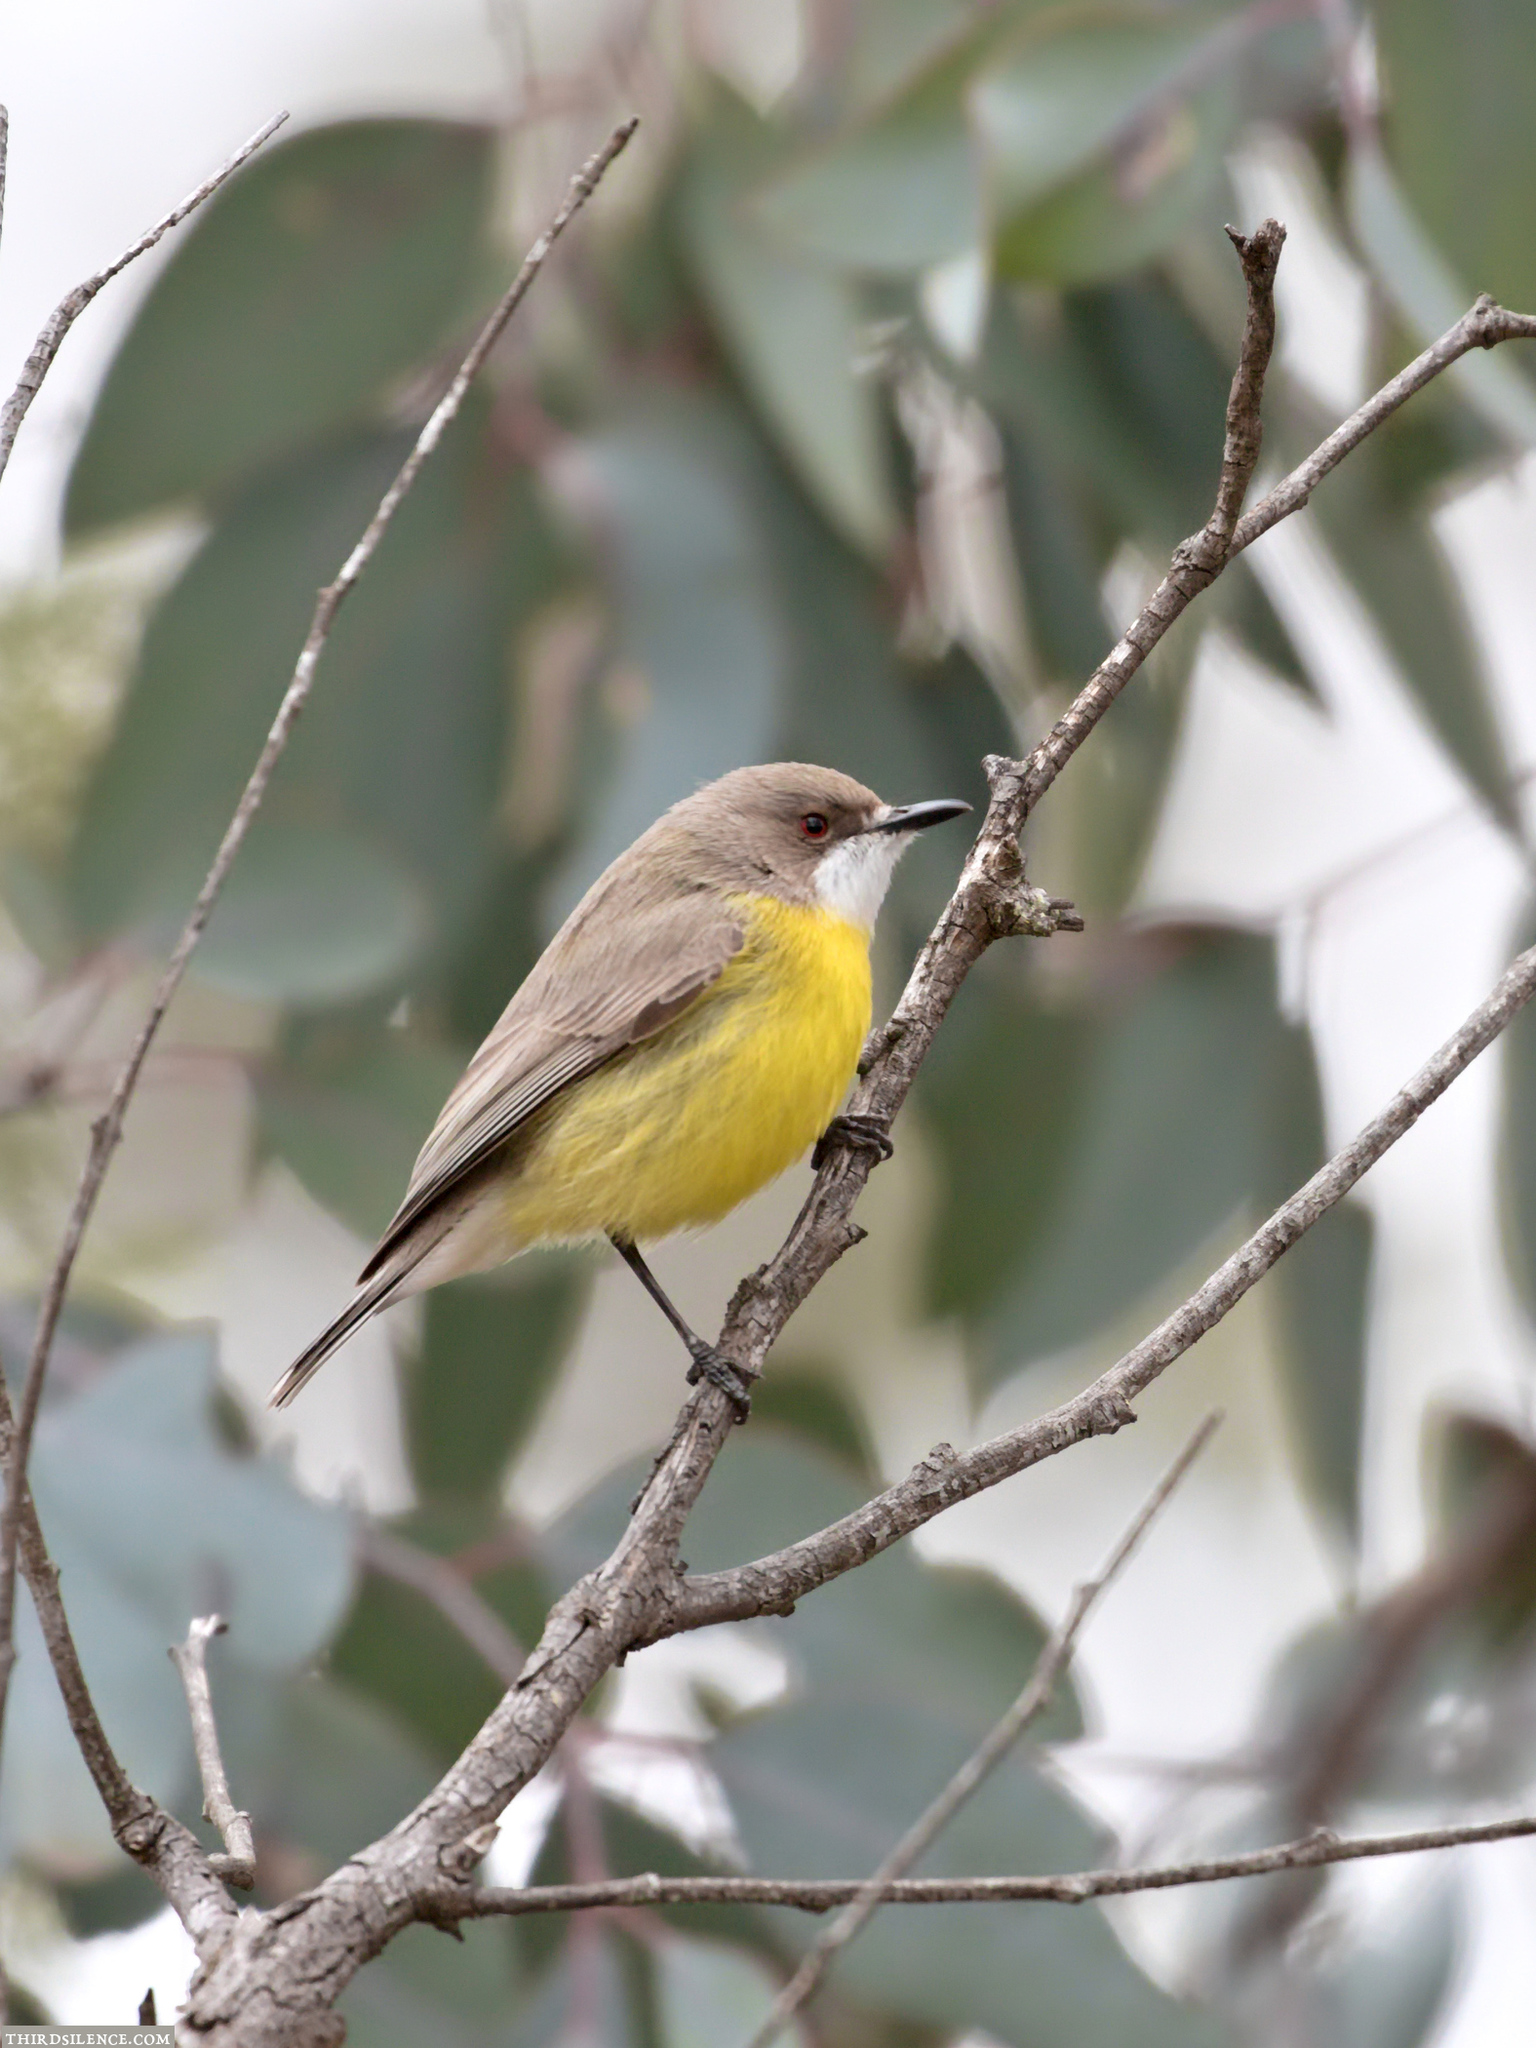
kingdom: Animalia
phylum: Chordata
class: Aves
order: Passeriformes
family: Acanthizidae
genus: Gerygone
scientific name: Gerygone olivacea
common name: White-throated gerygone
